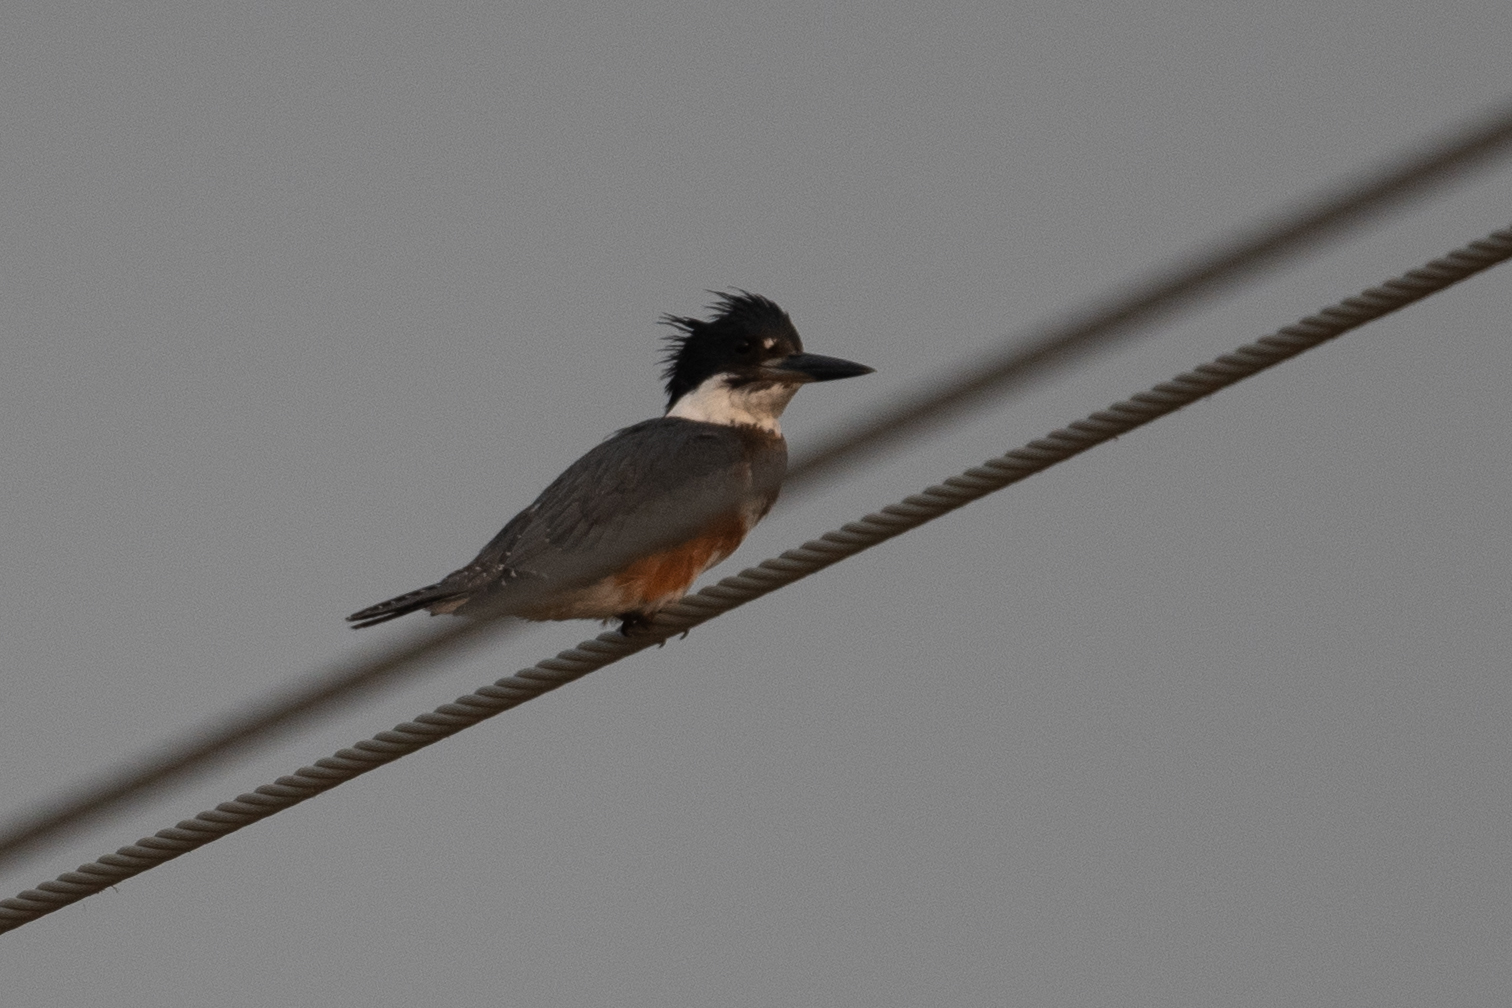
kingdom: Animalia
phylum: Chordata
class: Aves
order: Coraciiformes
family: Alcedinidae
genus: Megaceryle
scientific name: Megaceryle alcyon
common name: Belted kingfisher
